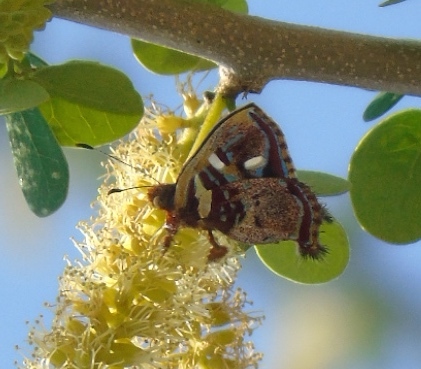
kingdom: Animalia
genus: Anteros
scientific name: Anteros carausius
